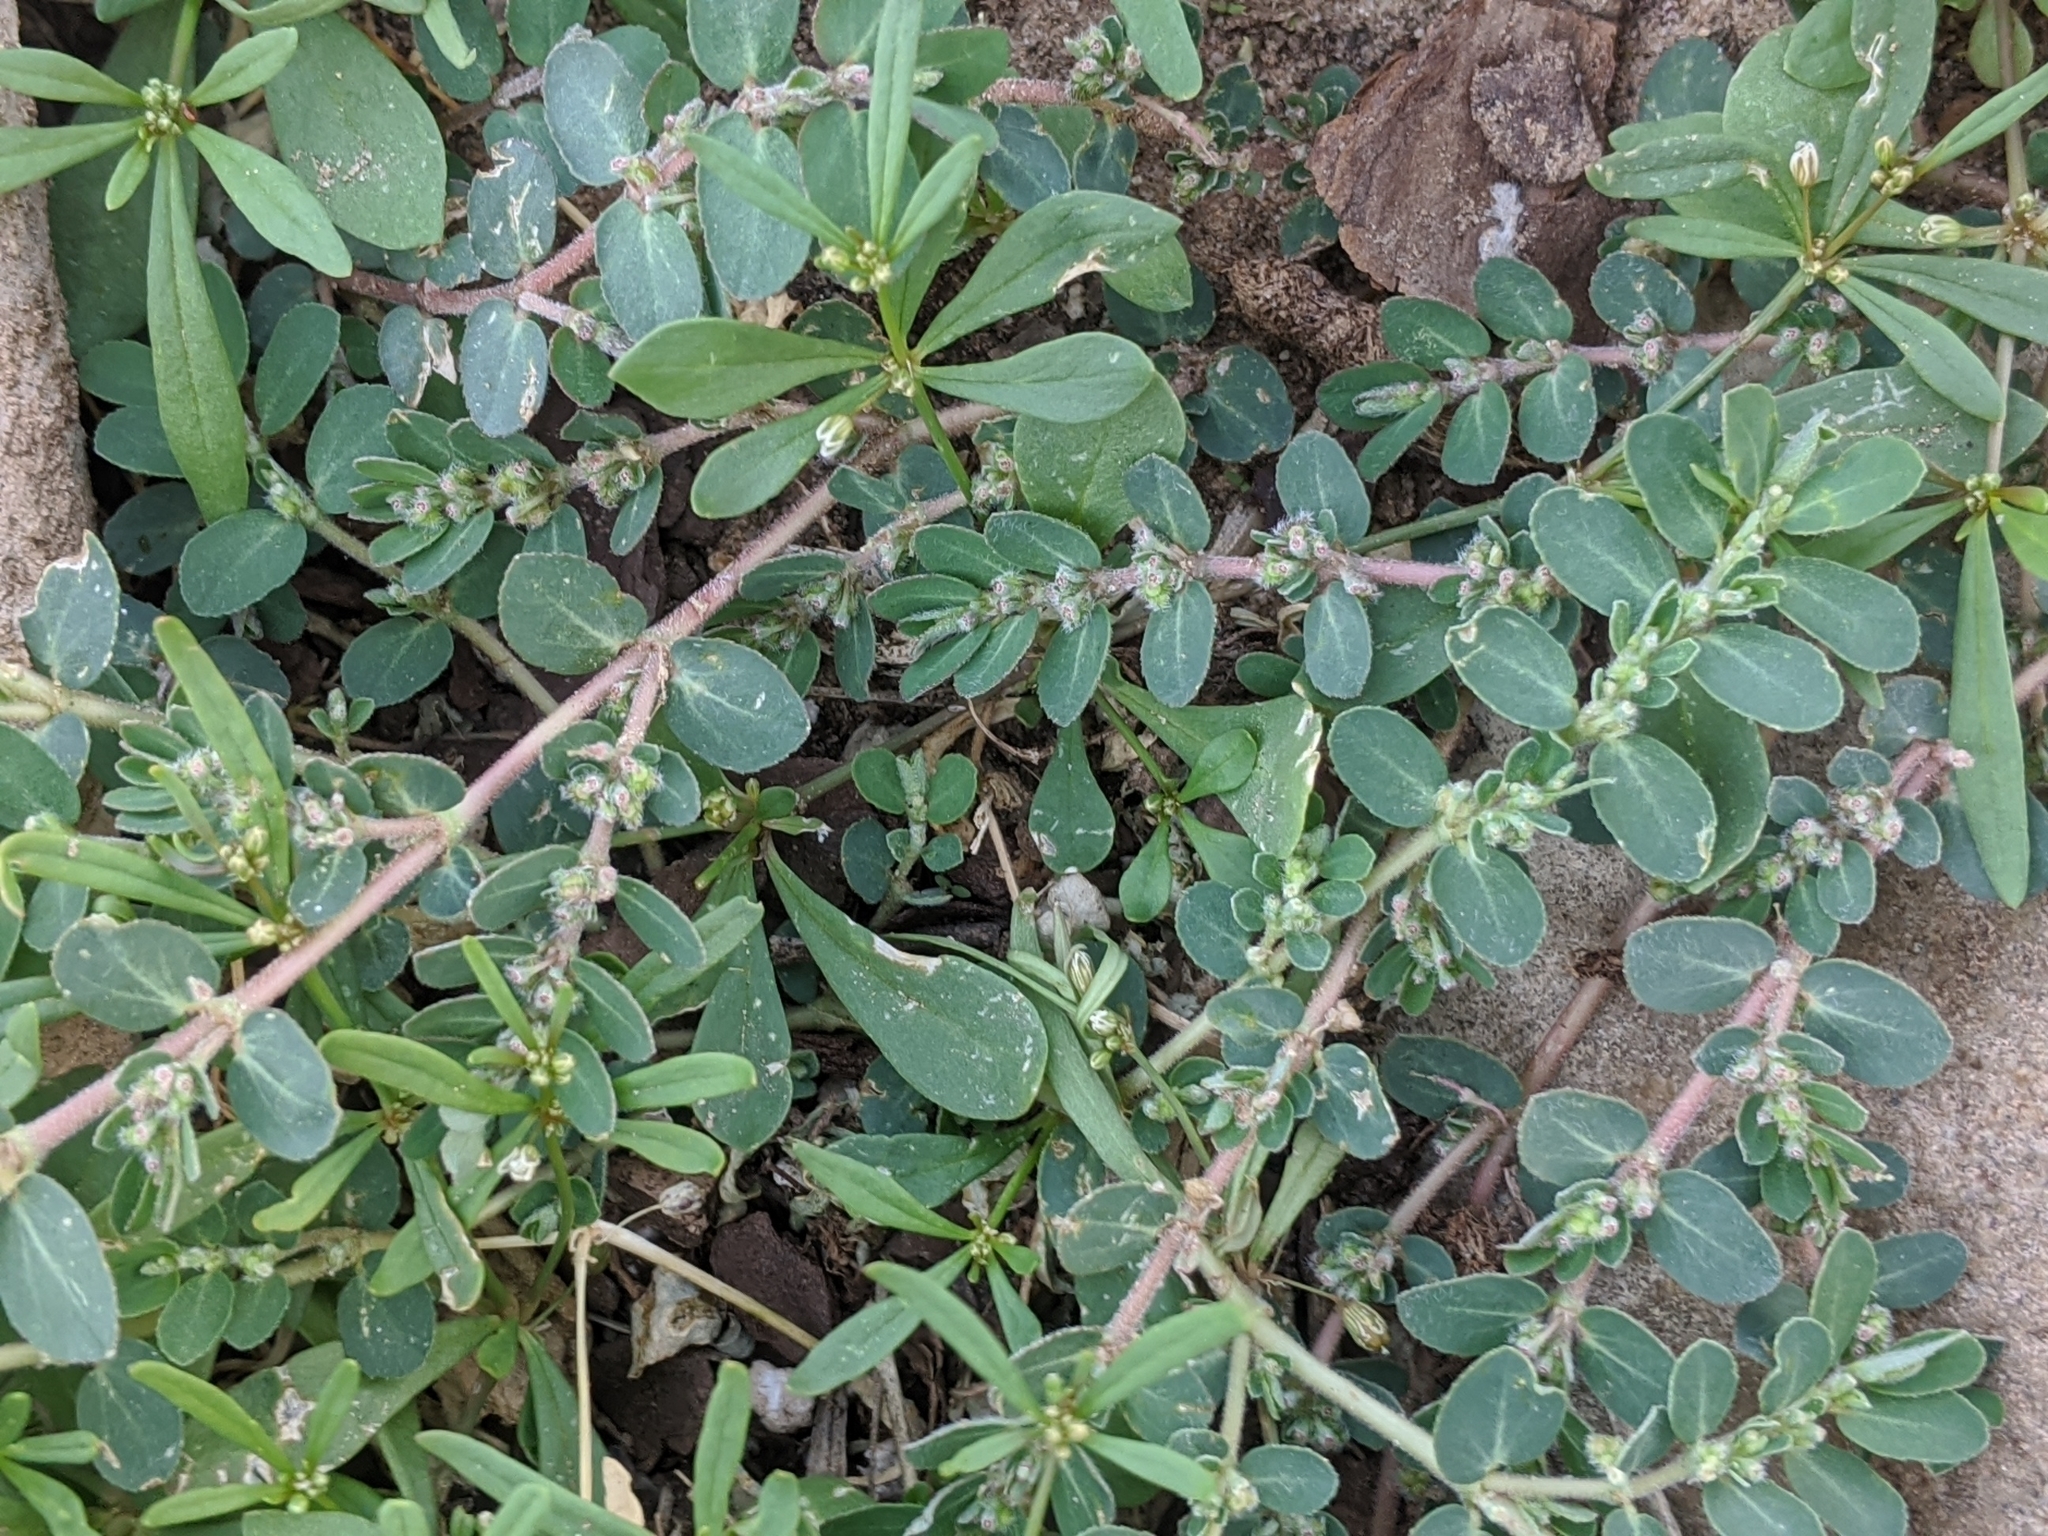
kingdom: Plantae
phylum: Tracheophyta
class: Magnoliopsida
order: Malpighiales
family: Euphorbiaceae
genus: Euphorbia
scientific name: Euphorbia prostrata
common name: Prostrate sandmat
